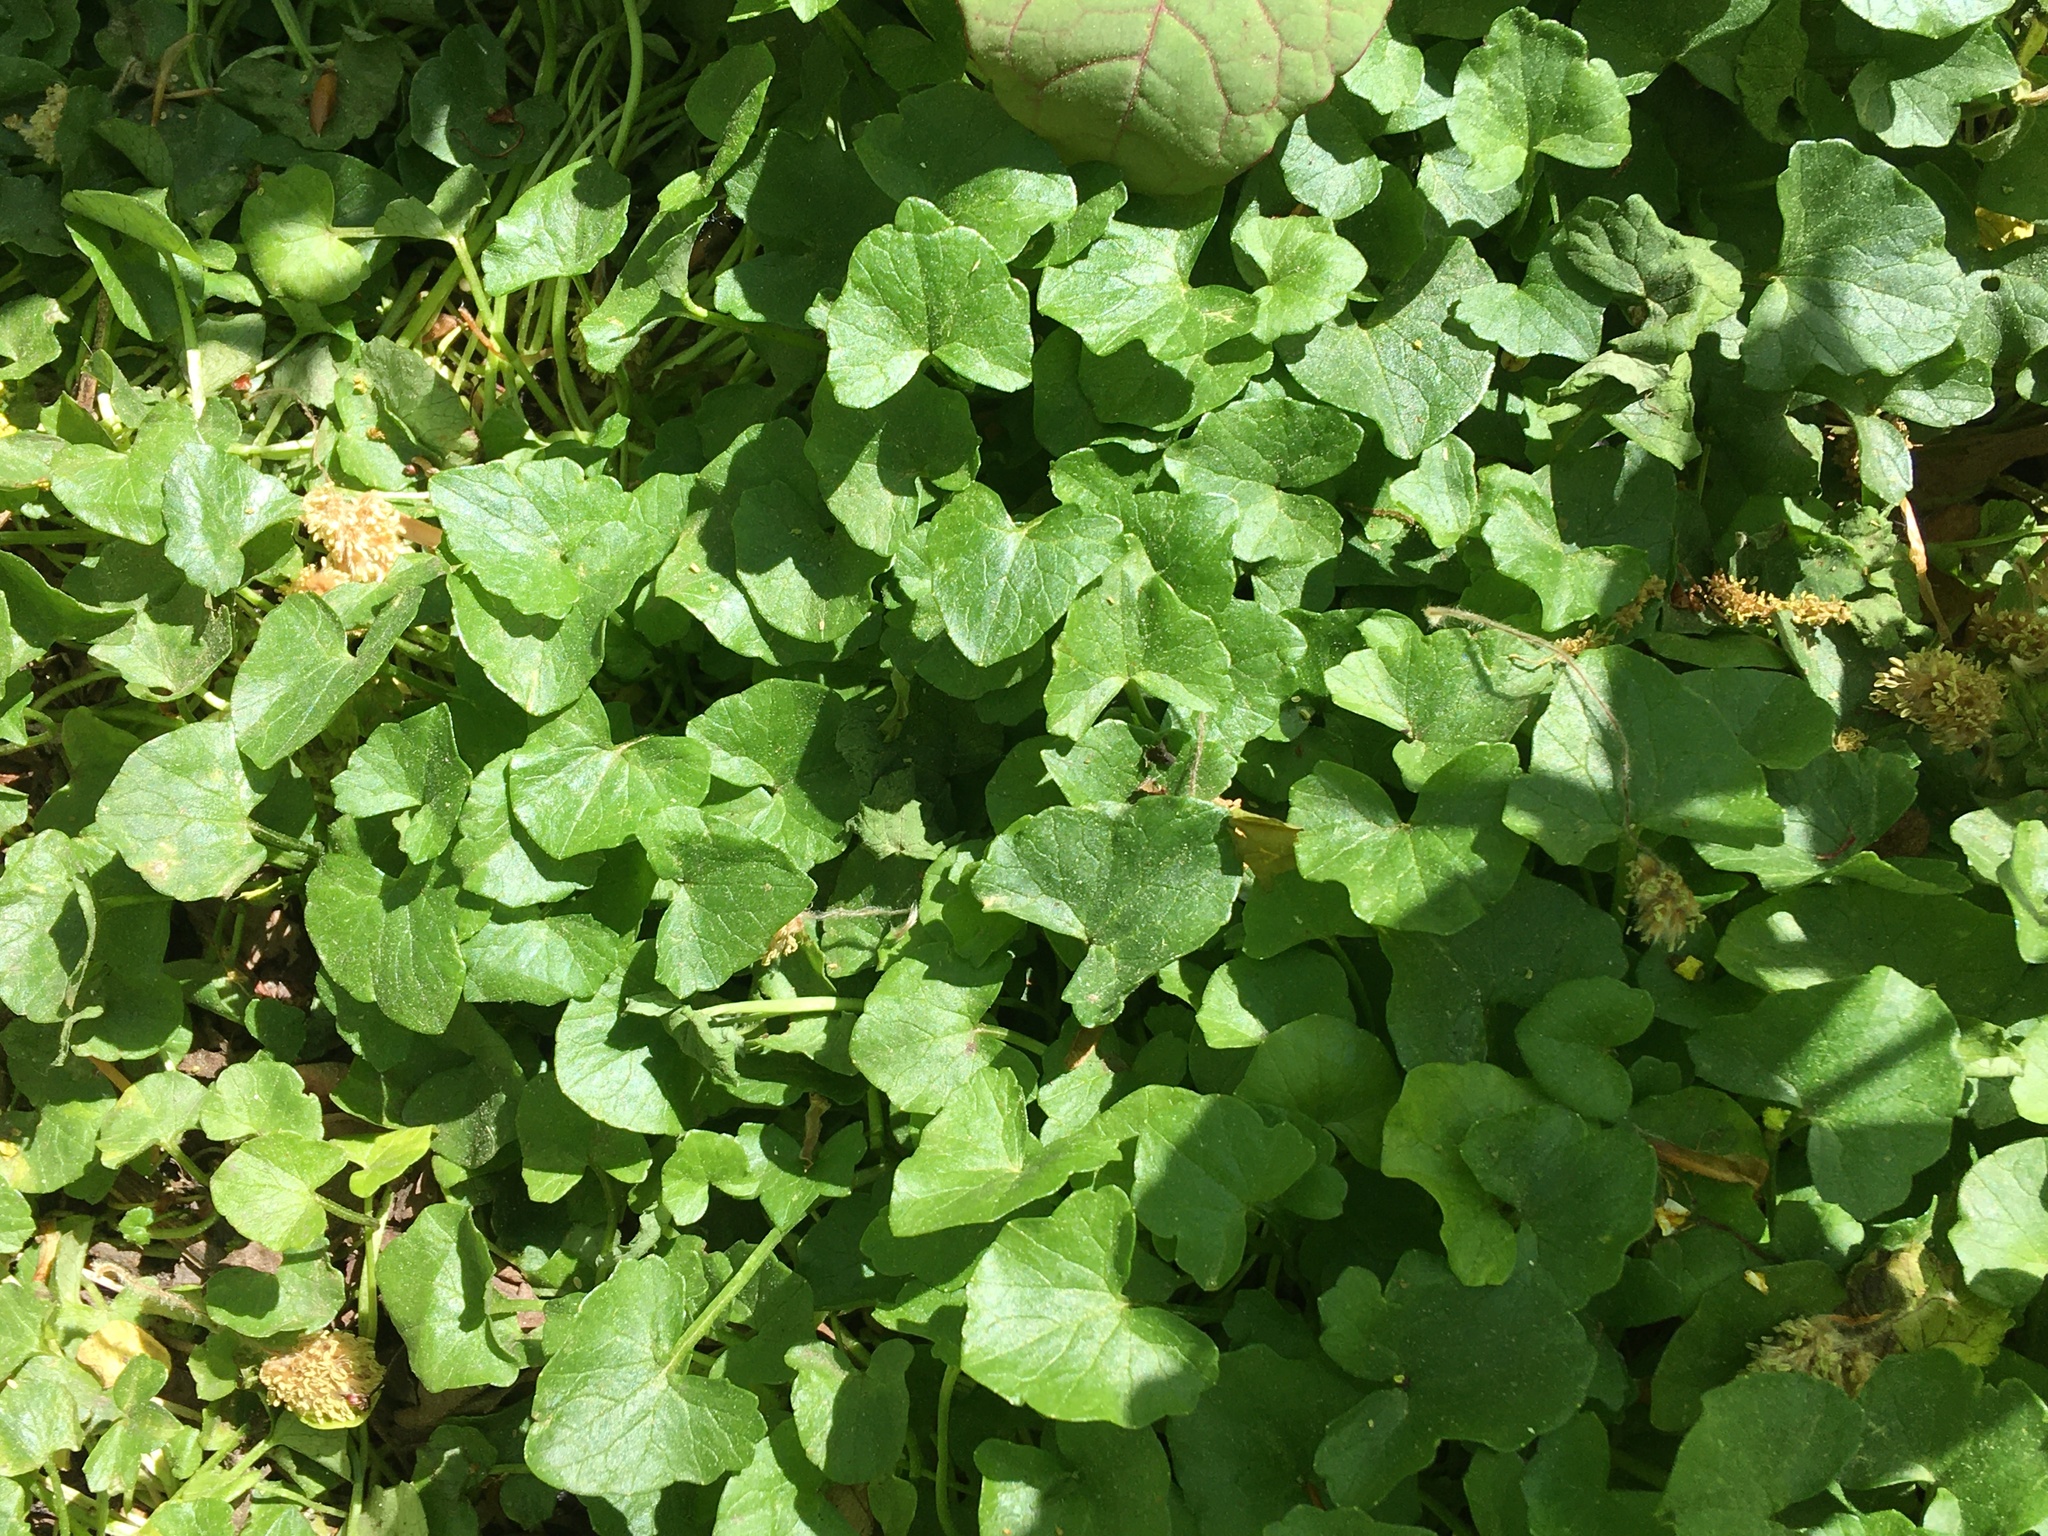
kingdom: Plantae
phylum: Tracheophyta
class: Magnoliopsida
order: Ranunculales
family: Ranunculaceae
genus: Ficaria
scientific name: Ficaria verna
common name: Lesser celandine
